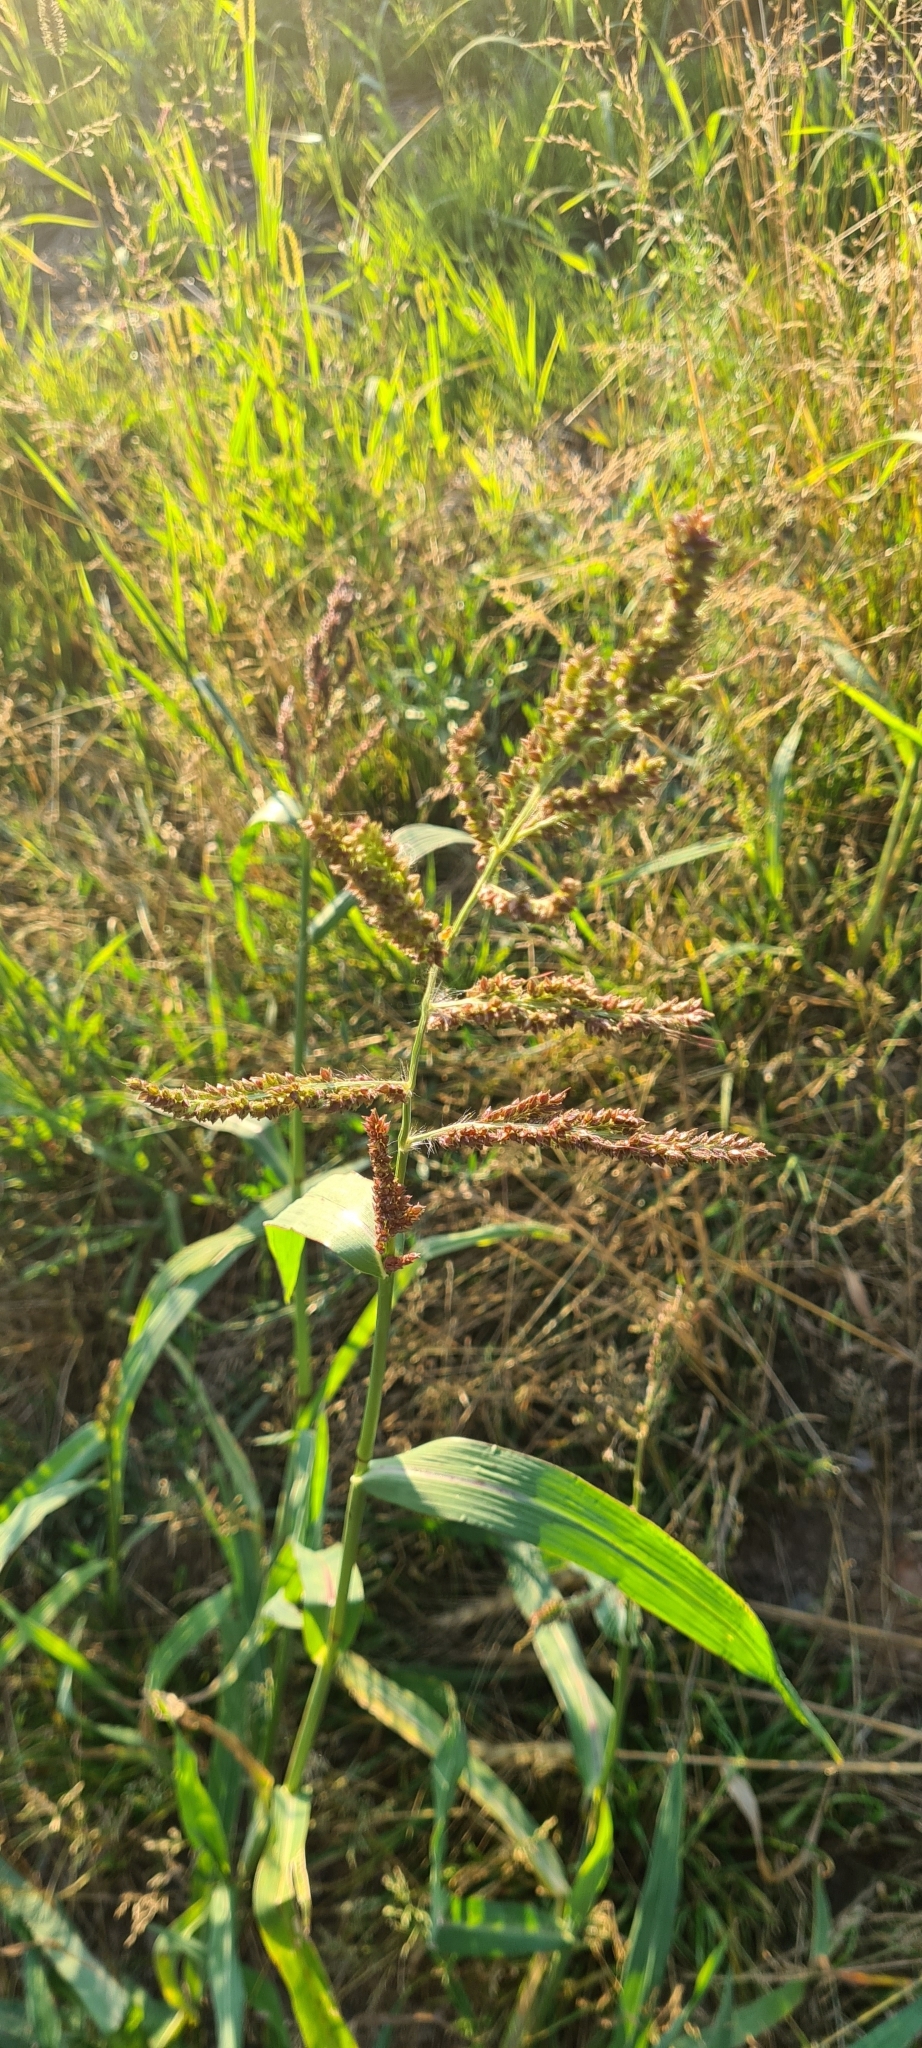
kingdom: Plantae
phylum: Tracheophyta
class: Liliopsida
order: Poales
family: Poaceae
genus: Echinochloa
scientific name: Echinochloa crus-galli
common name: Cockspur
